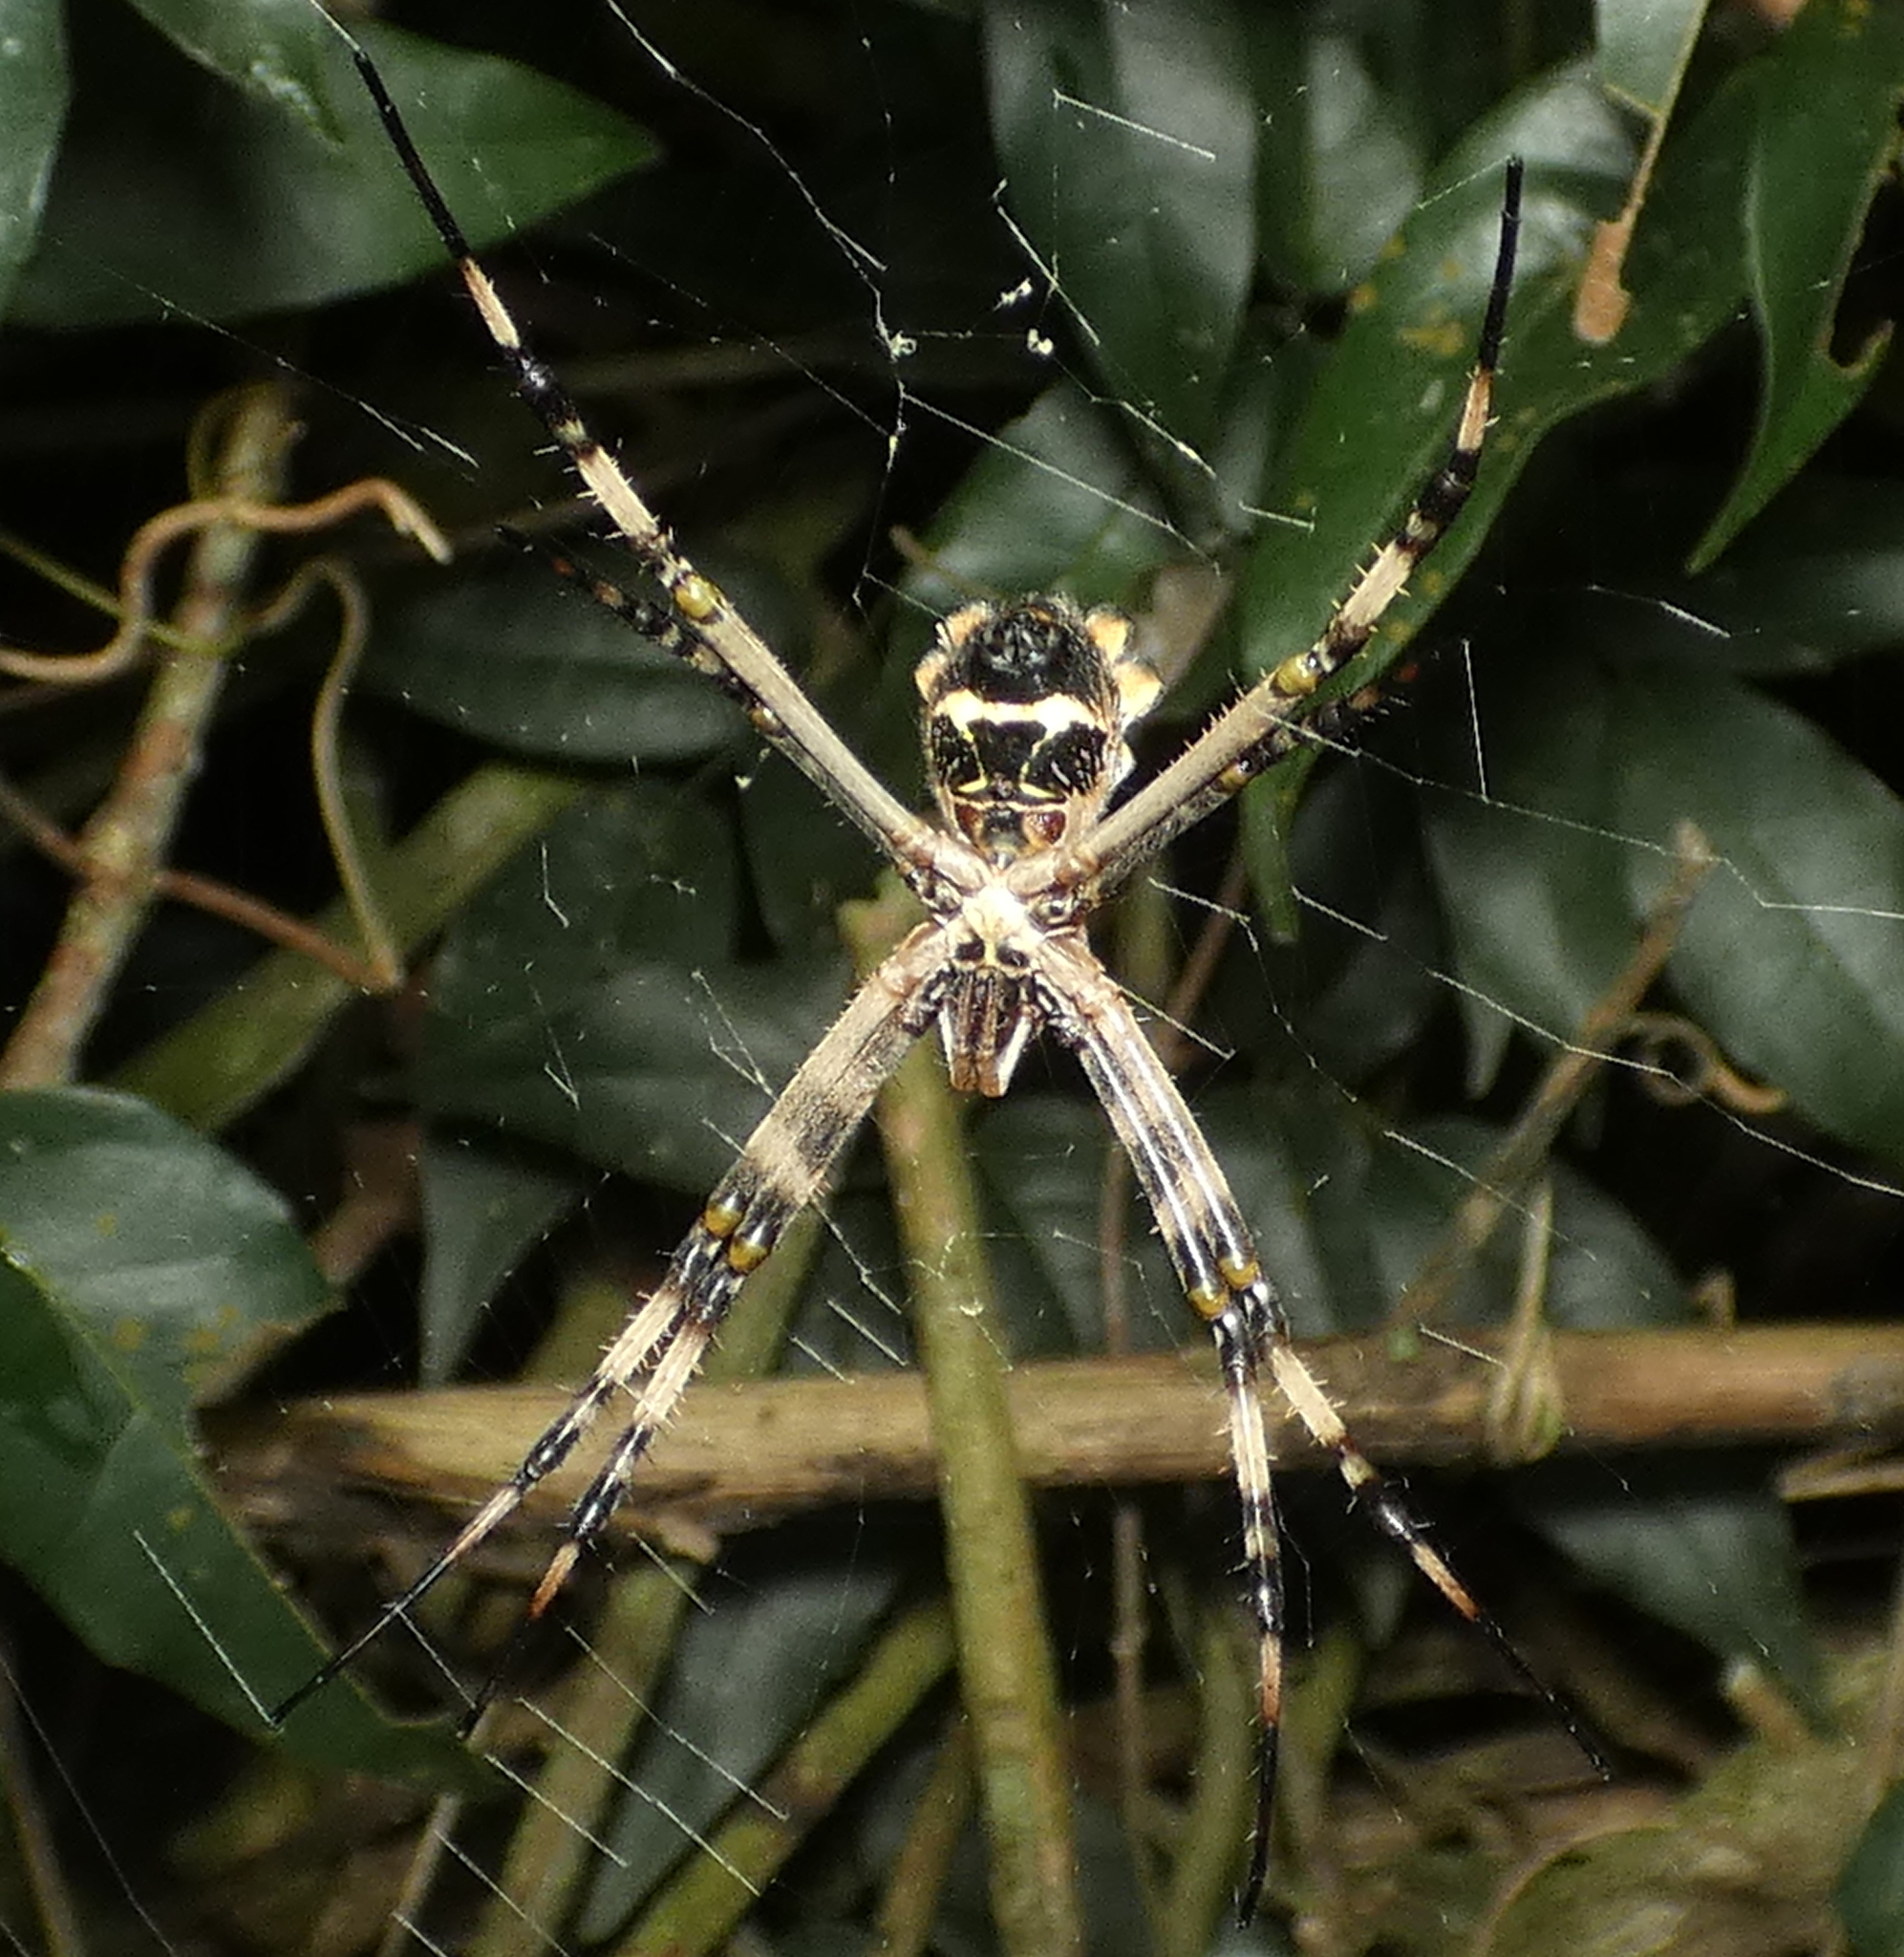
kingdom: Animalia
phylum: Arthropoda
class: Arachnida
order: Araneae
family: Araneidae
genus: Argiope
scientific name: Argiope argentata
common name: Orb weavers
